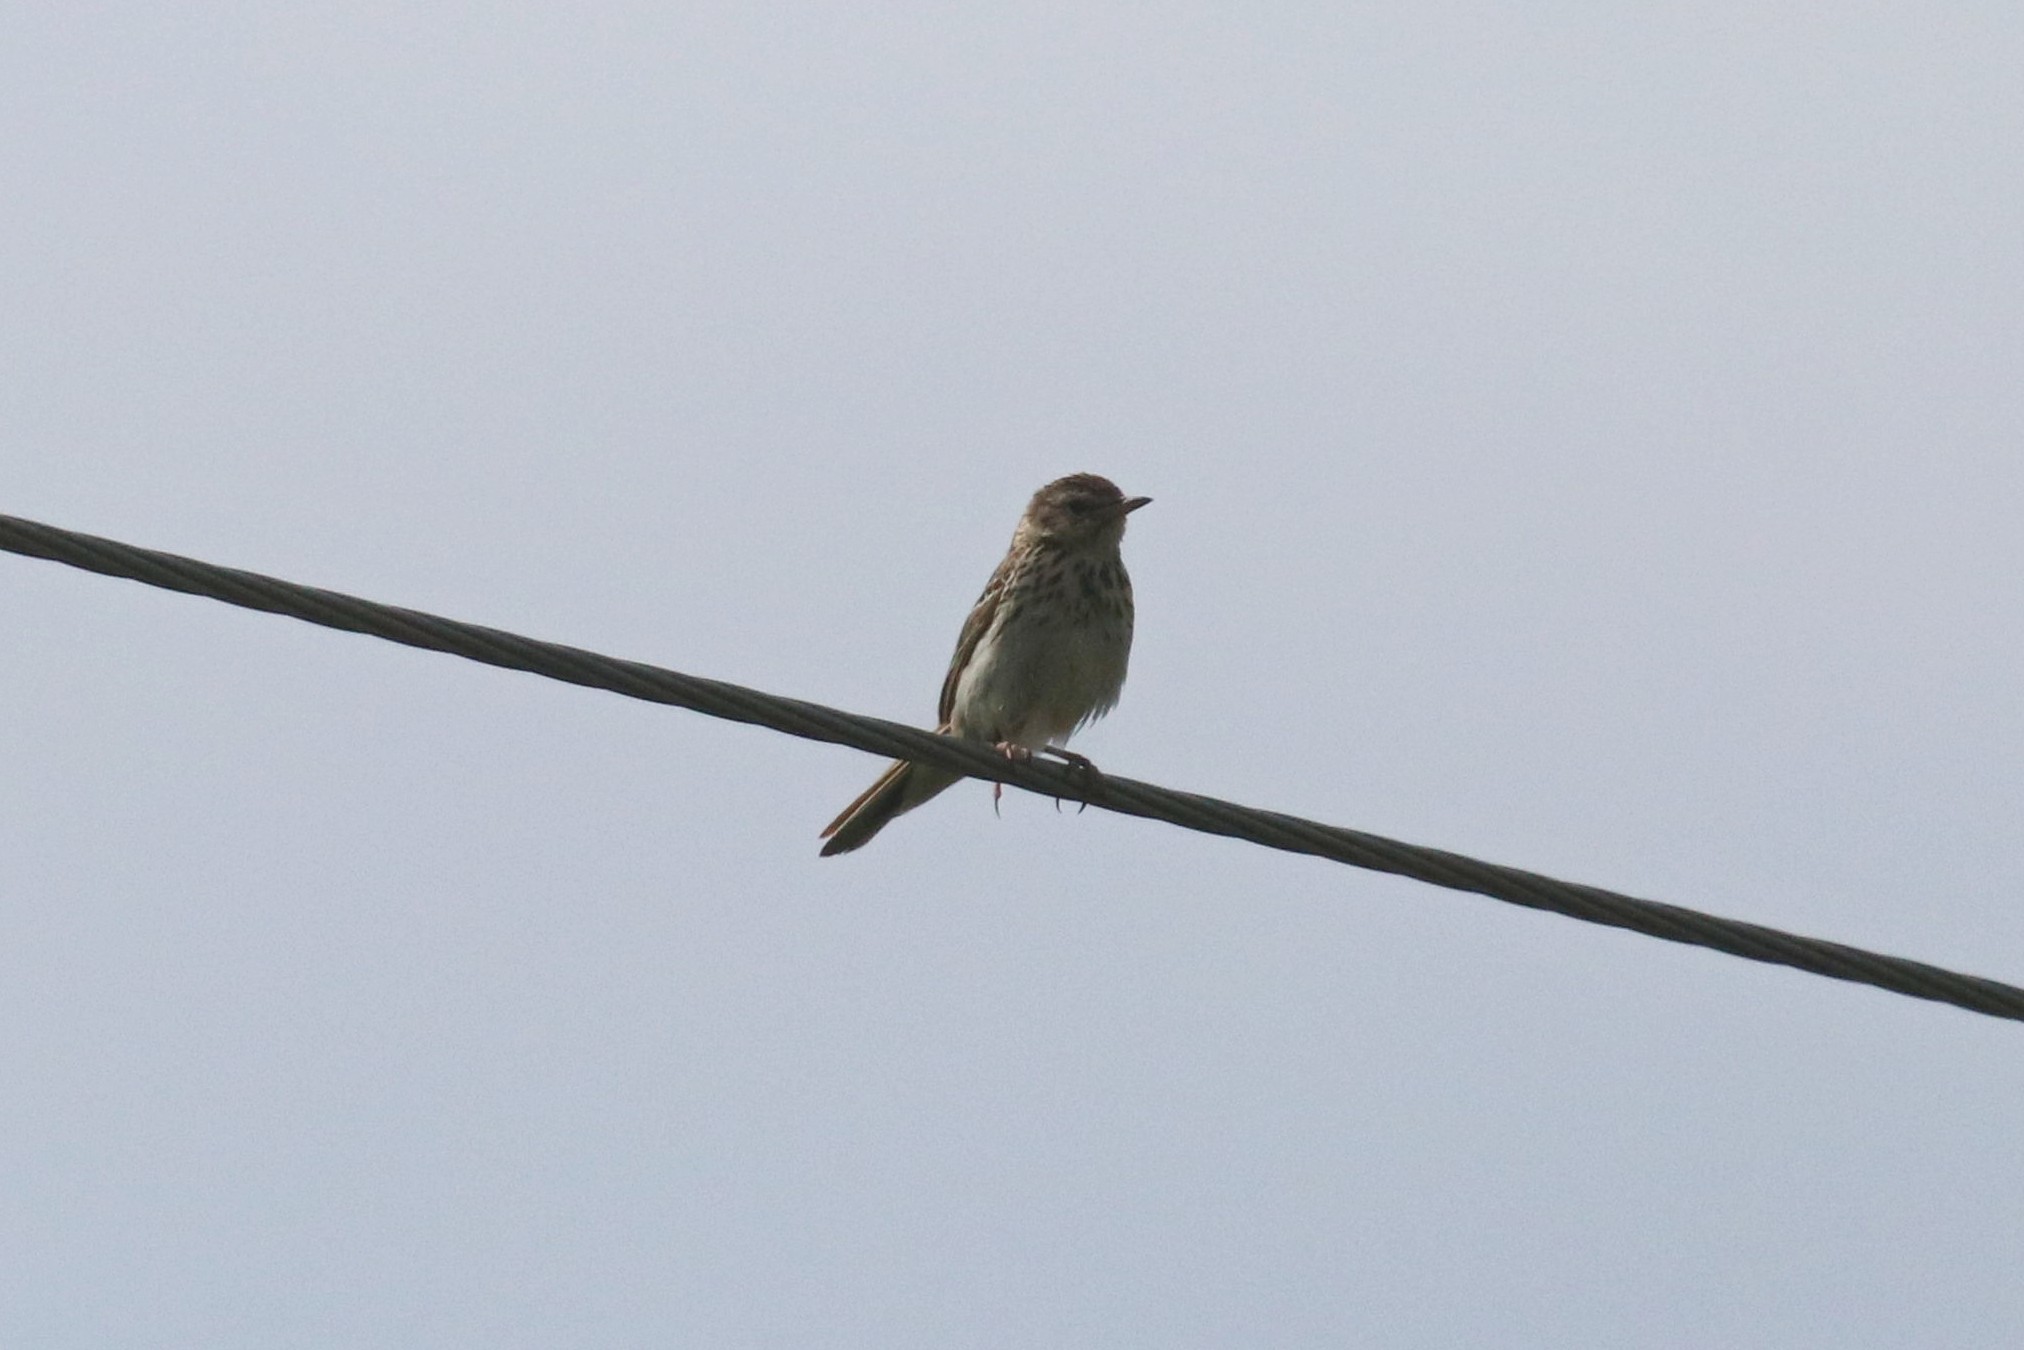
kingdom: Animalia
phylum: Chordata
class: Aves
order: Passeriformes
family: Motacillidae
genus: Anthus
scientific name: Anthus trivialis
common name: Tree pipit
